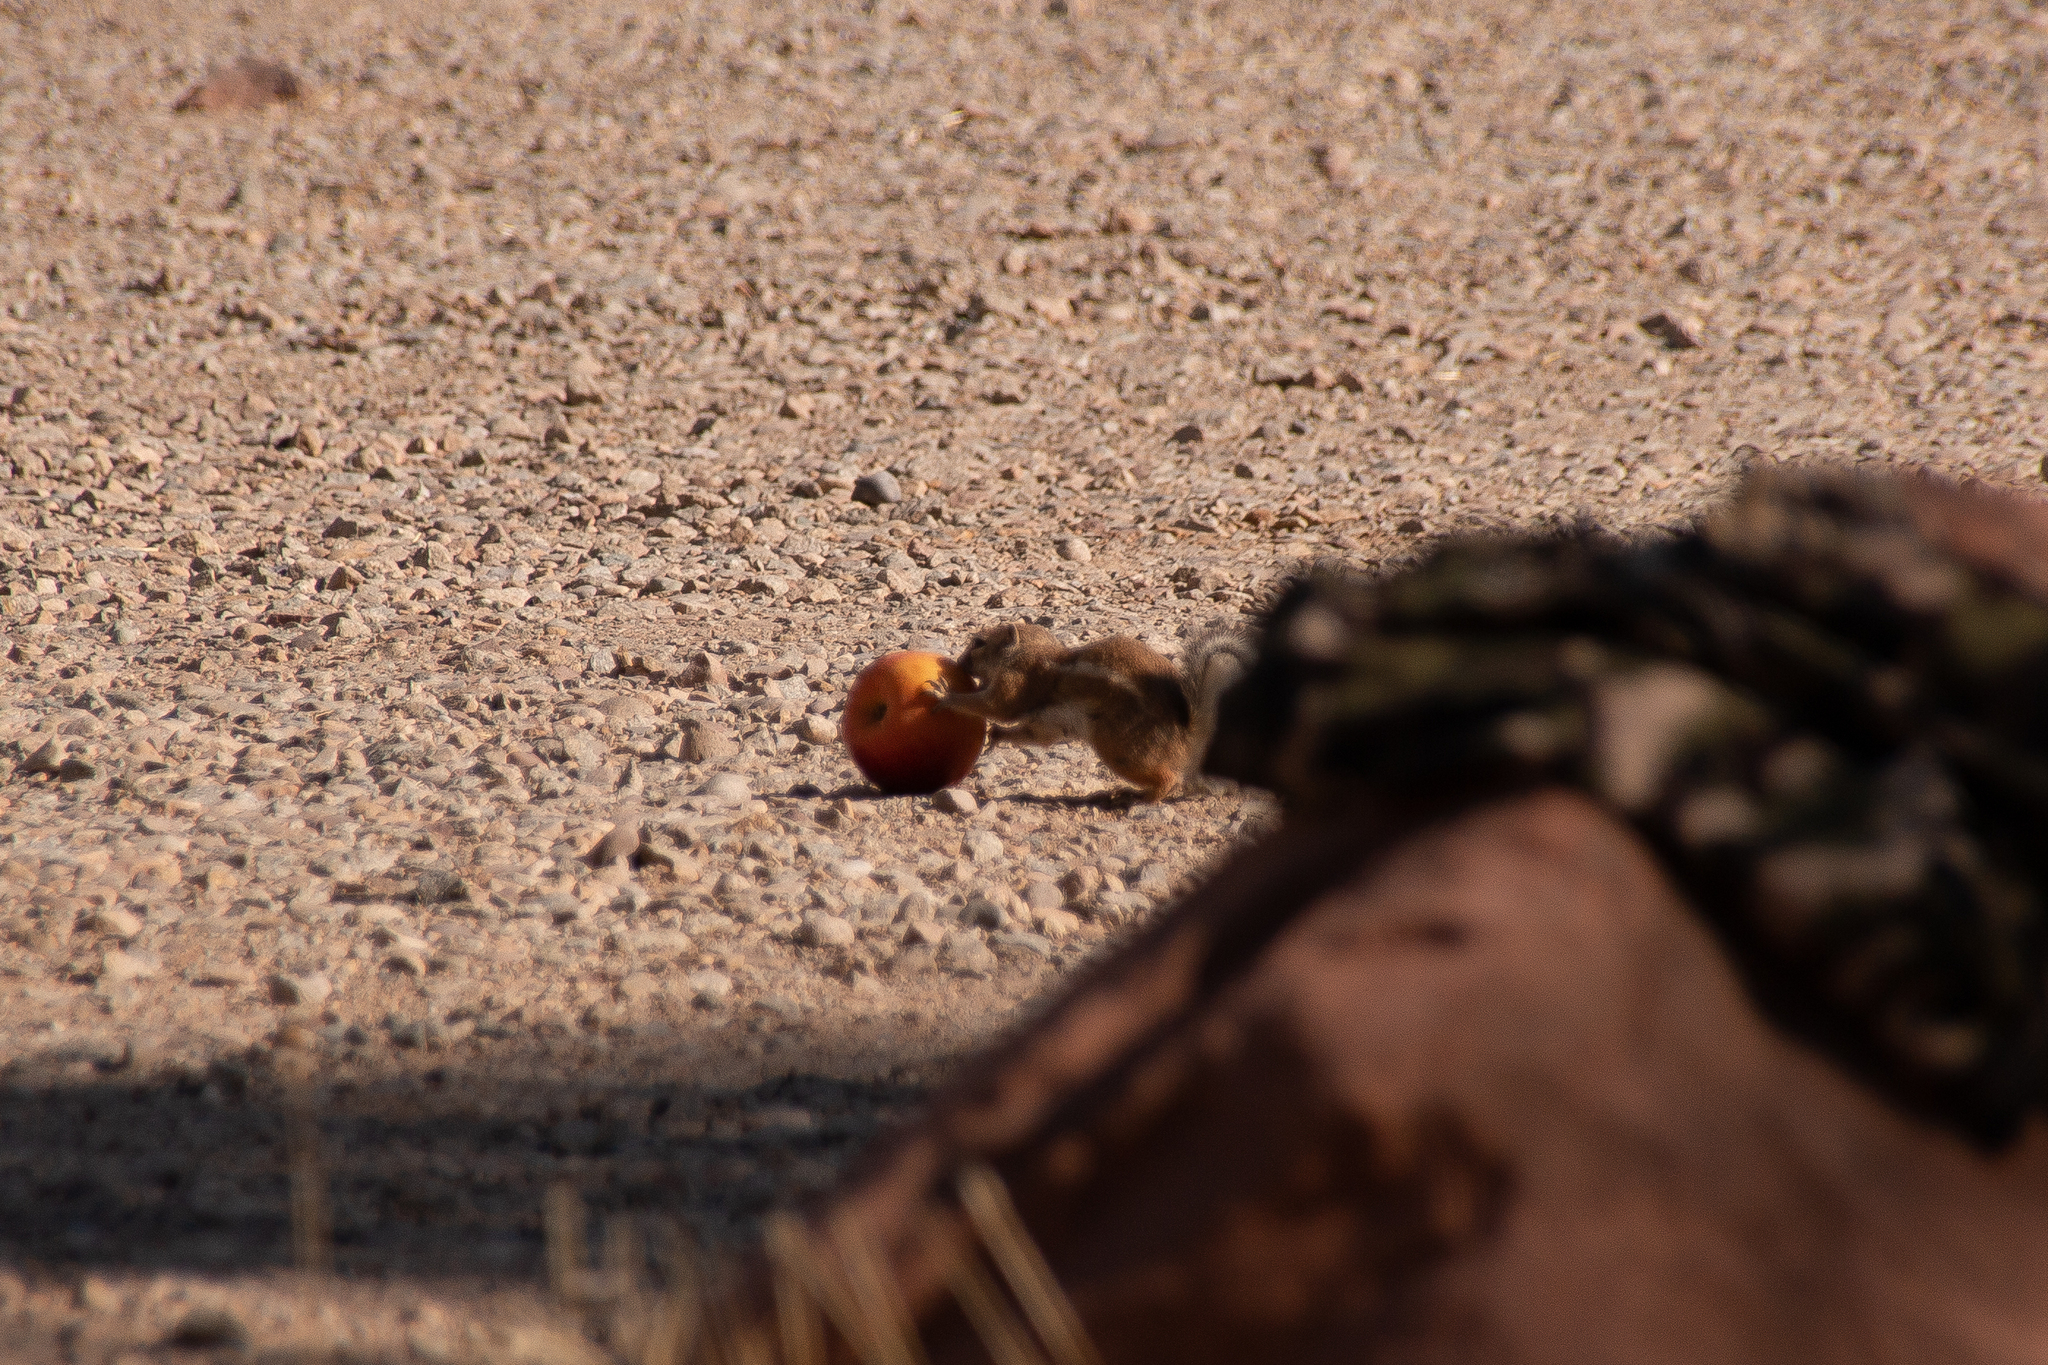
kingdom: Animalia
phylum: Chordata
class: Mammalia
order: Rodentia
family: Sciuridae
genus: Ammospermophilus
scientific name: Ammospermophilus leucurus
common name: White-tailed antelope squirrel
